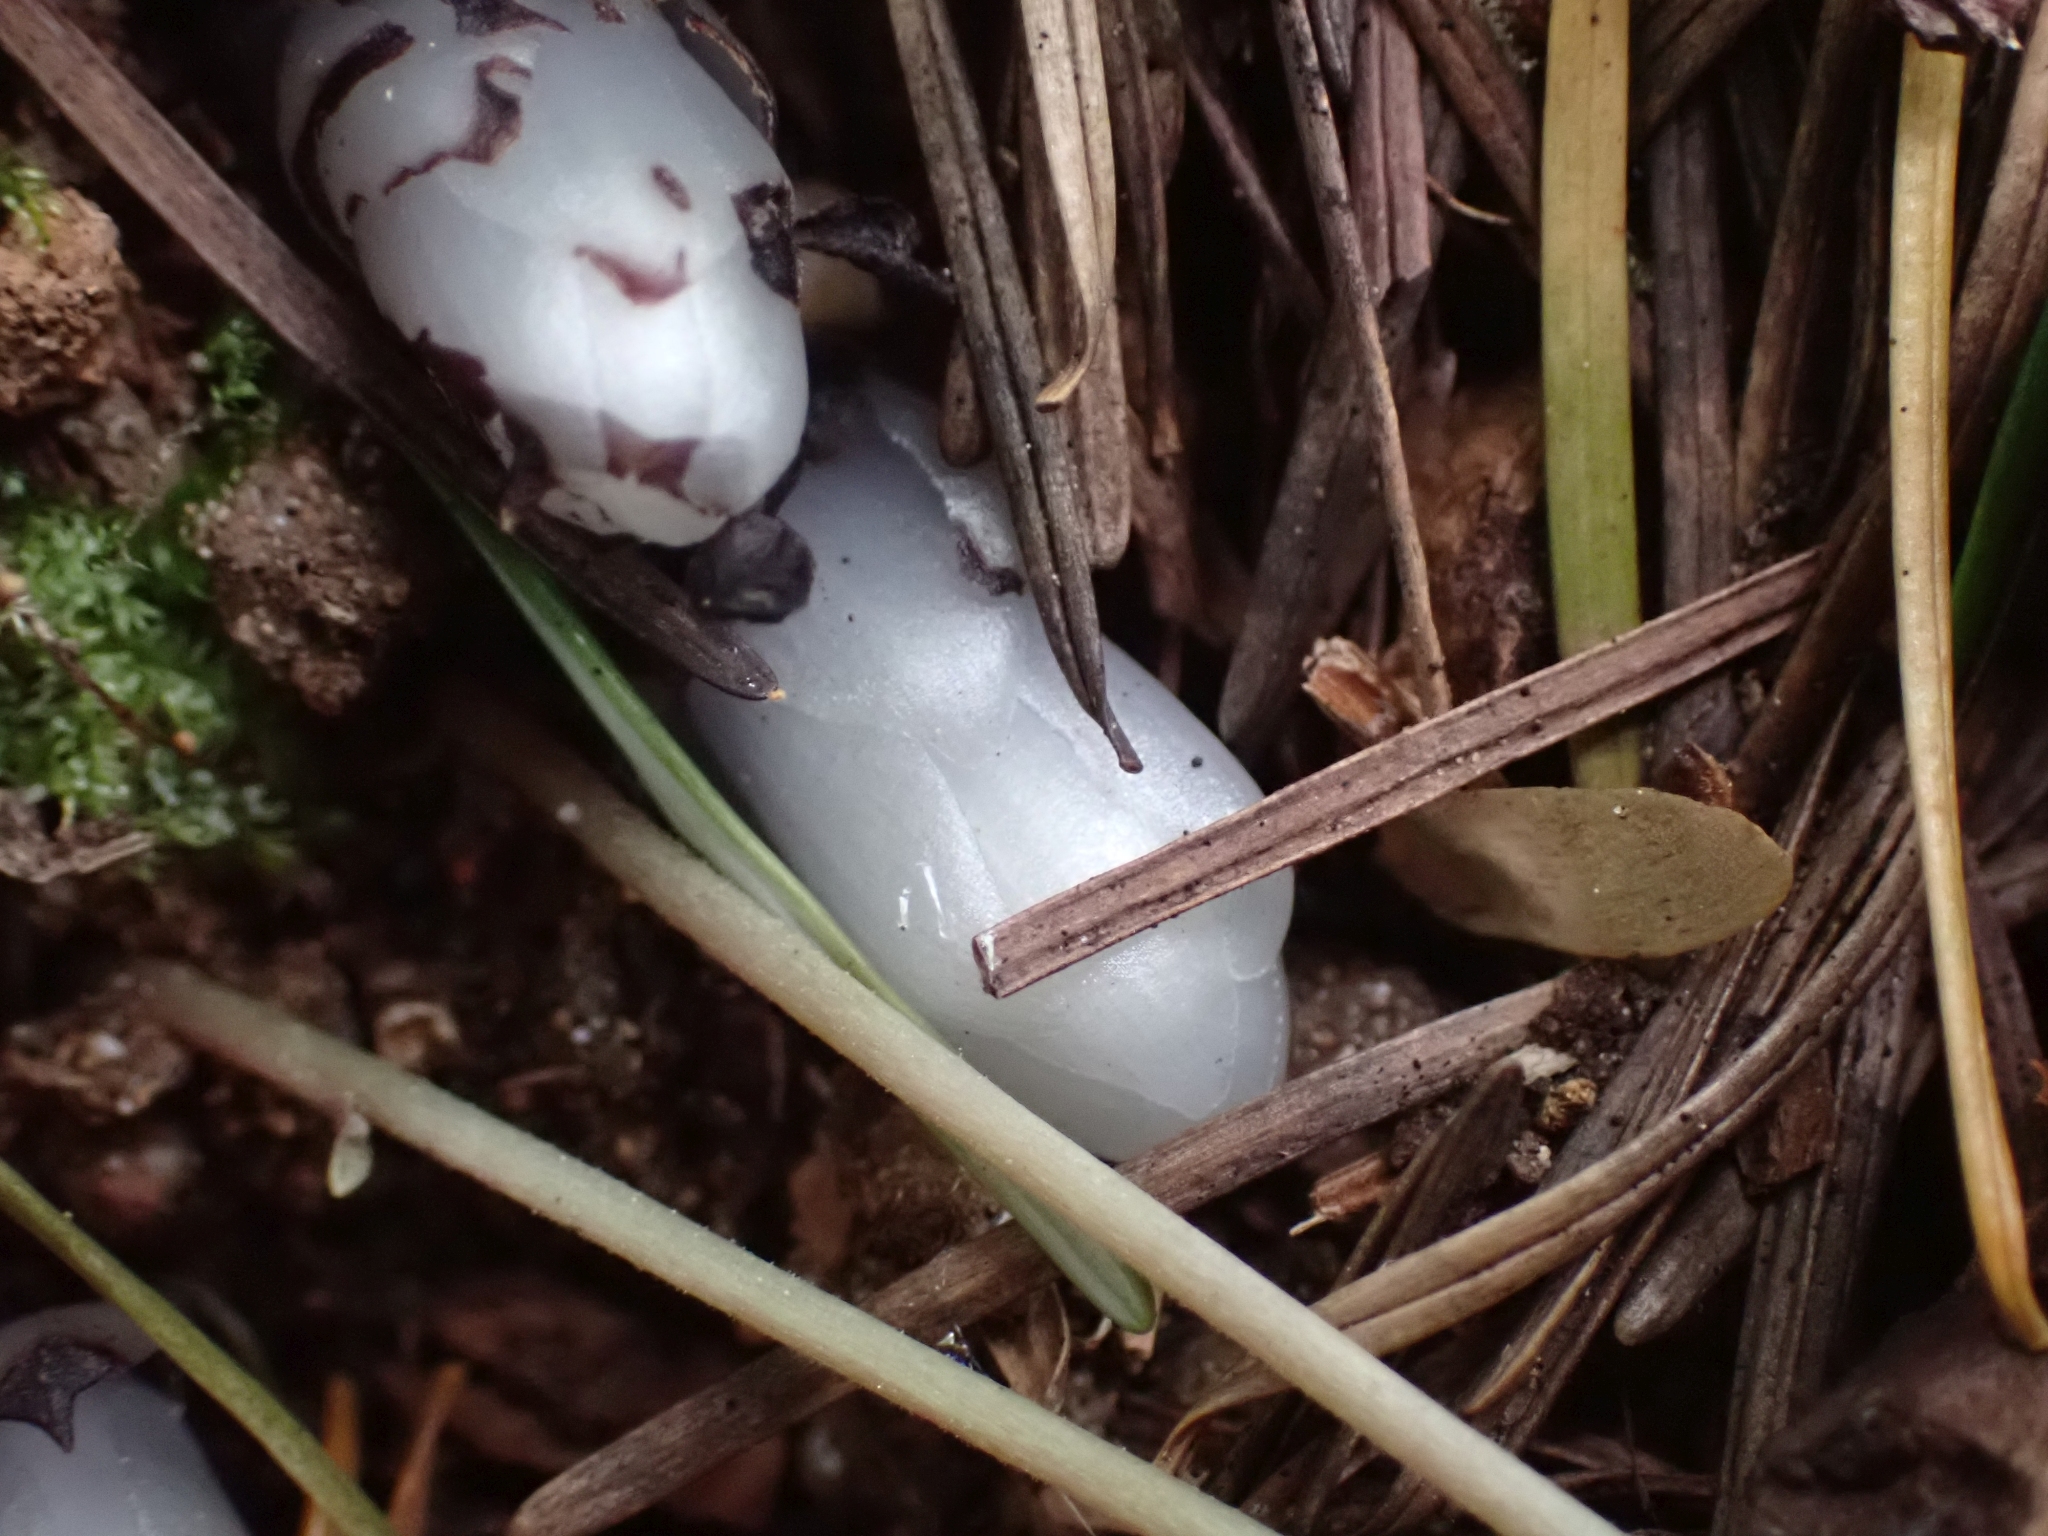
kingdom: Plantae
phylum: Tracheophyta
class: Magnoliopsida
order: Ericales
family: Ericaceae
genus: Monotropa
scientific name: Monotropa uniflora
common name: Convulsion root
